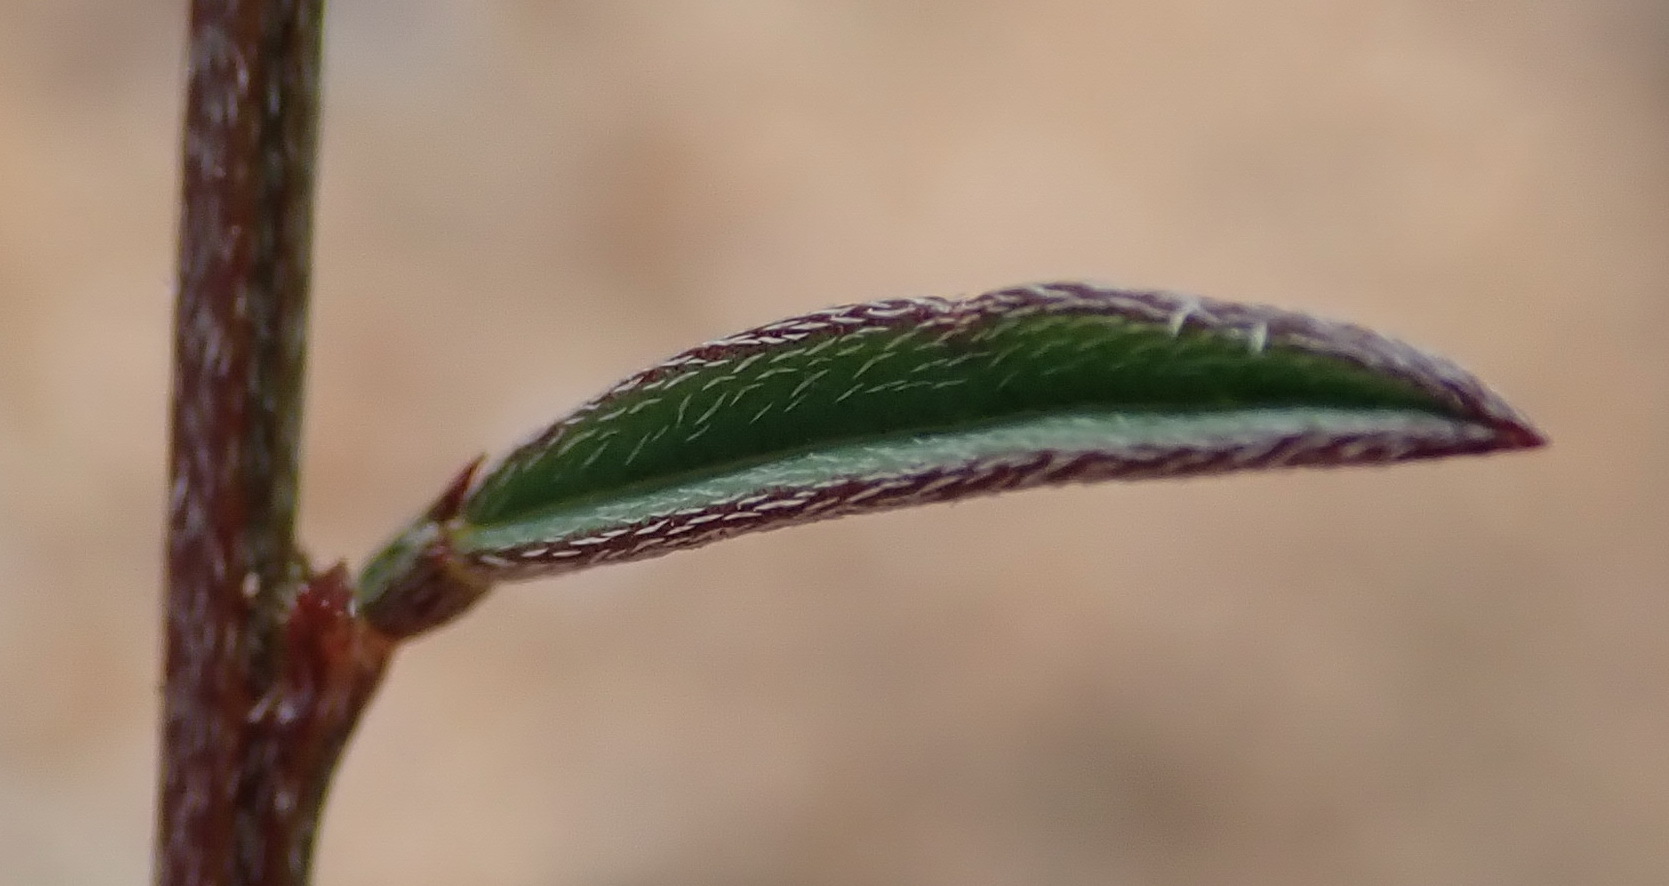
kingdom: Plantae
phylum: Tracheophyta
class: Magnoliopsida
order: Fabales
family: Fabaceae
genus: Indigofera
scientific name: Indigofera leptocarpa
